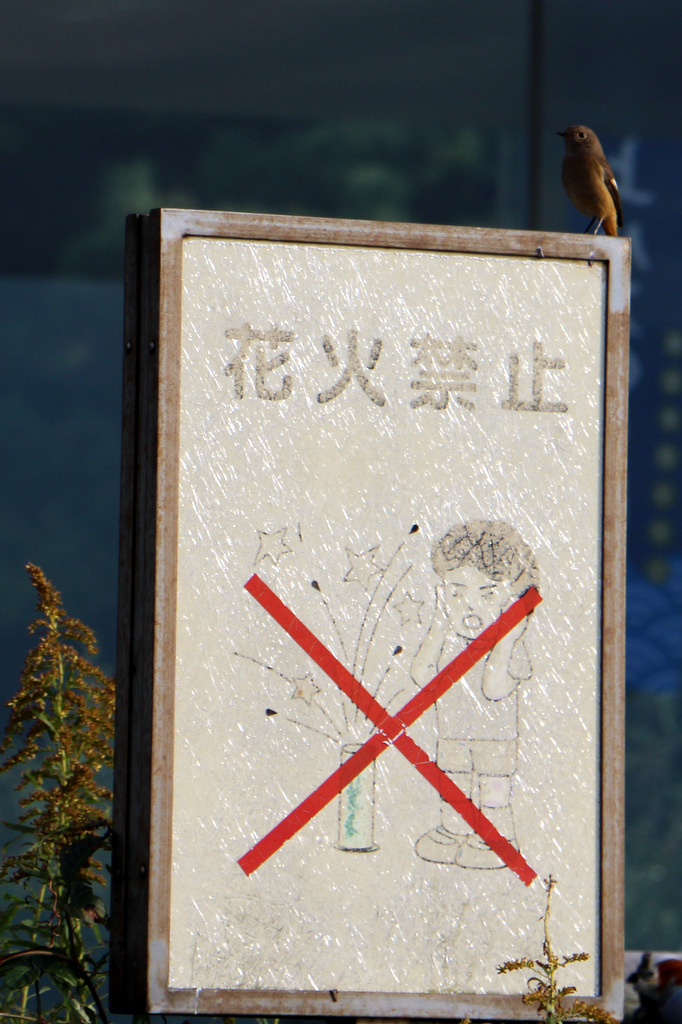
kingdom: Animalia
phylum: Chordata
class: Aves
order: Passeriformes
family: Muscicapidae
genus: Phoenicurus
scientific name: Phoenicurus auroreus
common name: Daurian redstart
